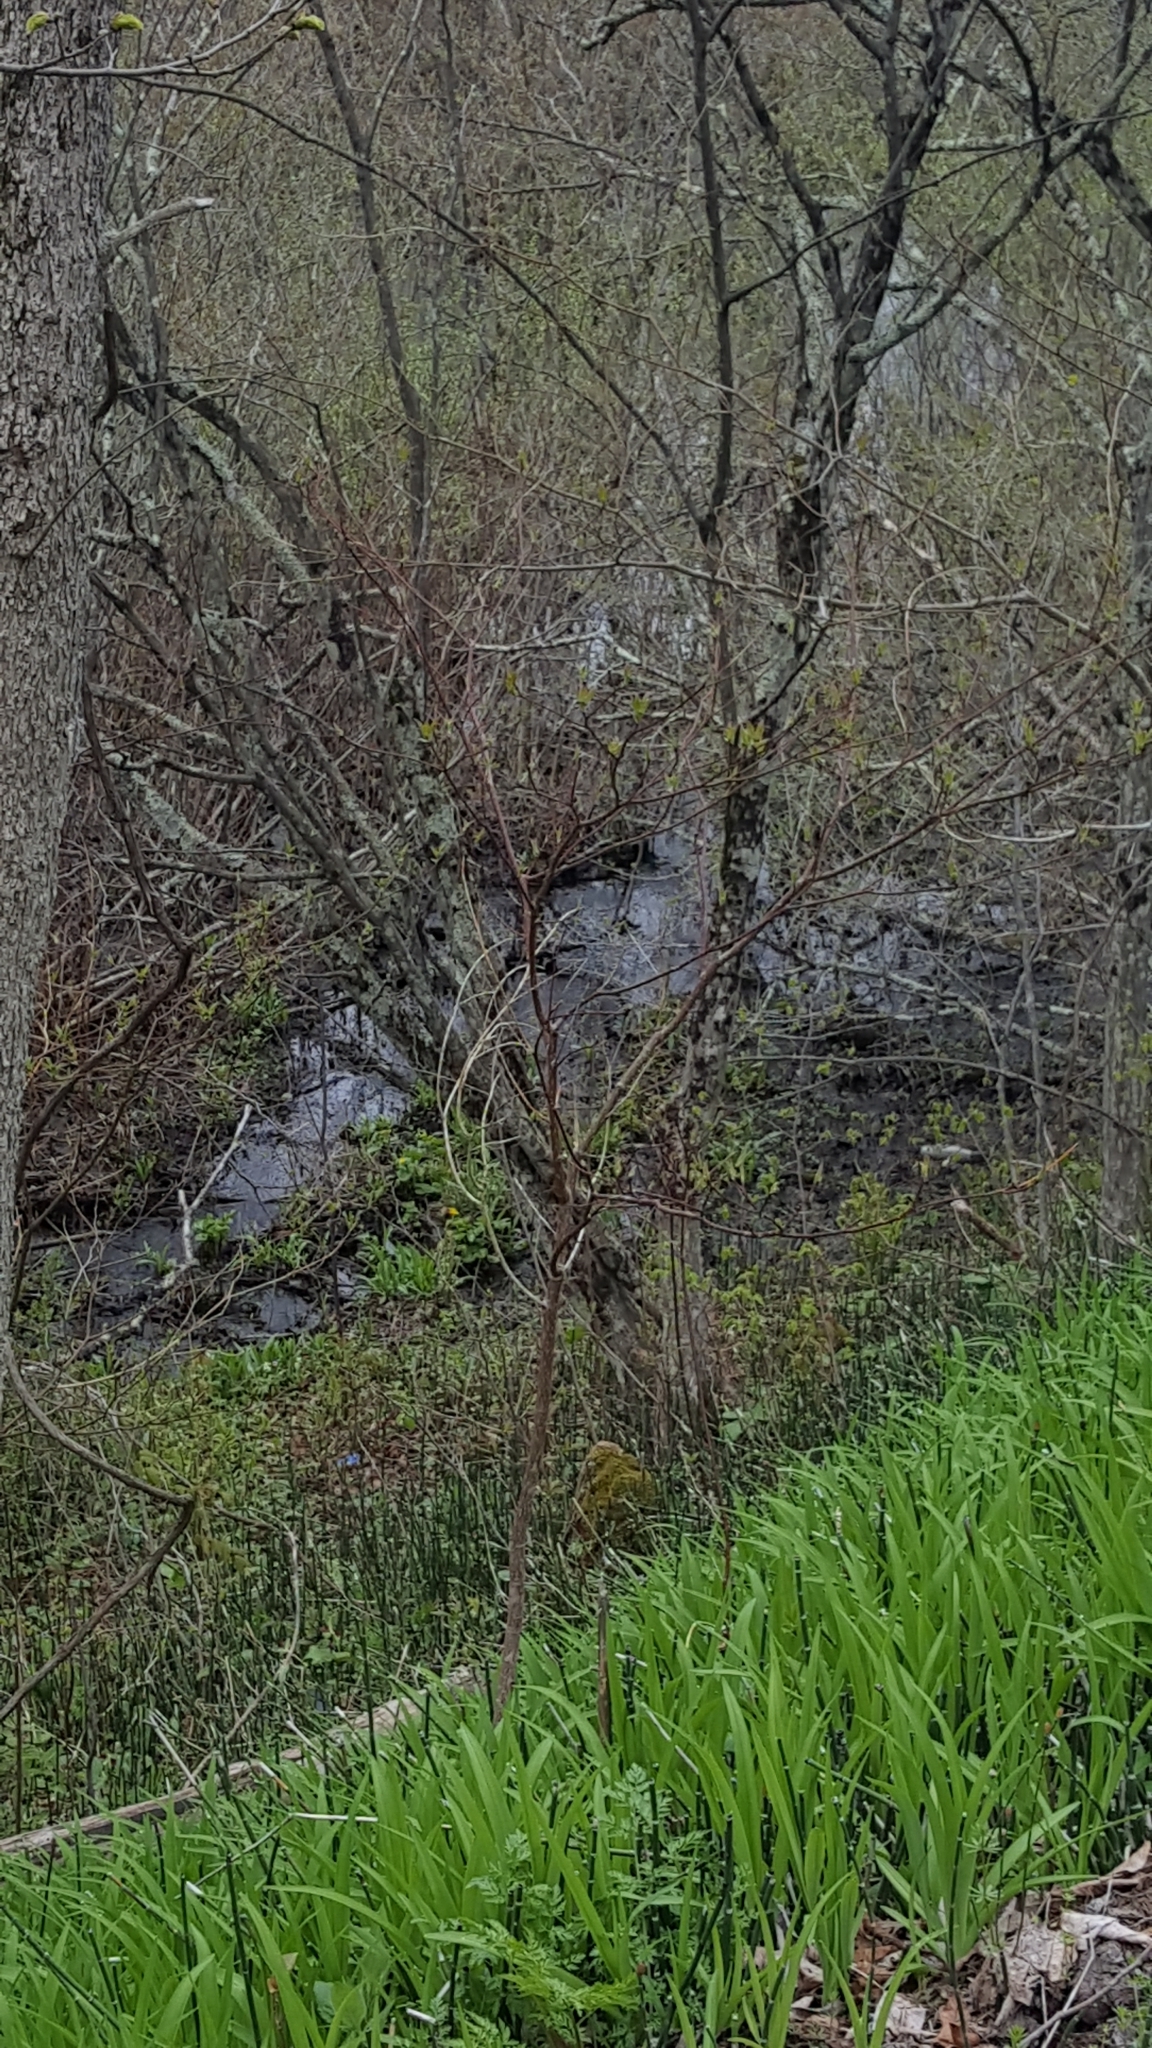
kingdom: Plantae
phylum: Tracheophyta
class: Magnoliopsida
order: Cornales
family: Cornaceae
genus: Cornus
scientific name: Cornus alternifolia
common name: Pagoda dogwood
